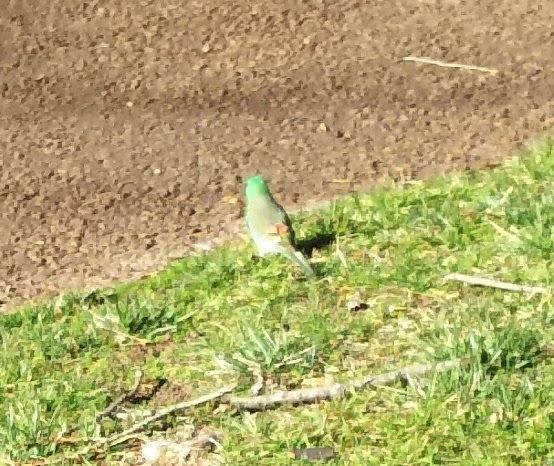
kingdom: Animalia
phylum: Chordata
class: Aves
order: Psittaciformes
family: Psittacidae
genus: Psephotus
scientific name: Psephotus haematonotus
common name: Red-rumped parrot
